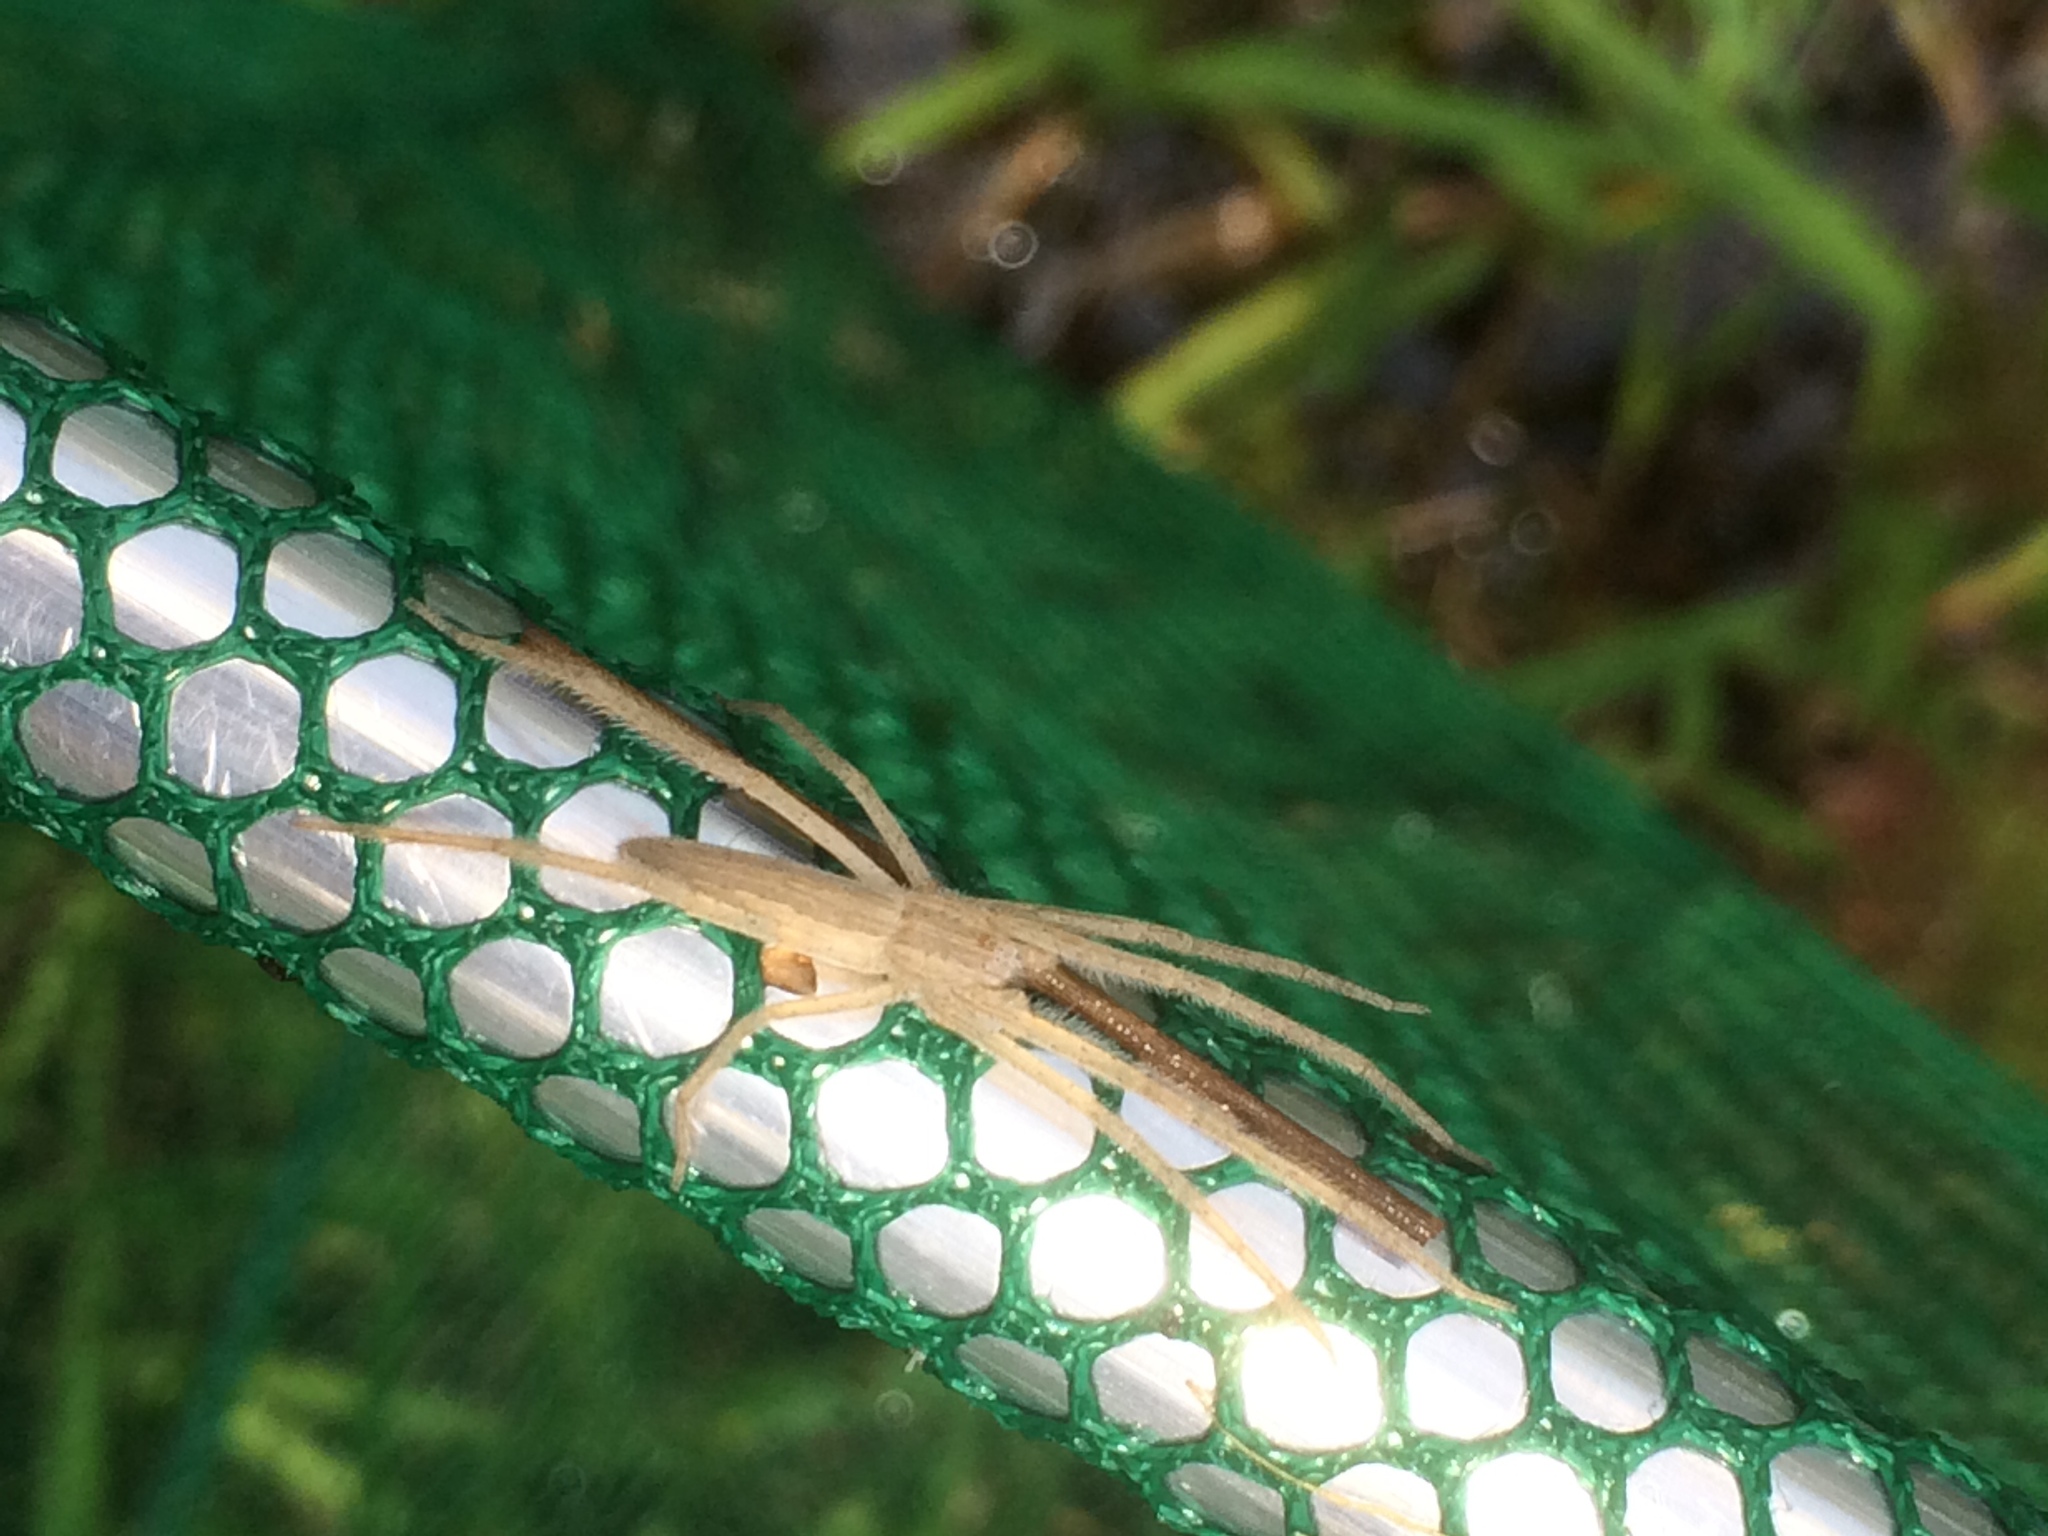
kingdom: Animalia
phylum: Arthropoda
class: Arachnida
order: Araneae
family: Pisauridae
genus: Pisaurina
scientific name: Pisaurina undulata
